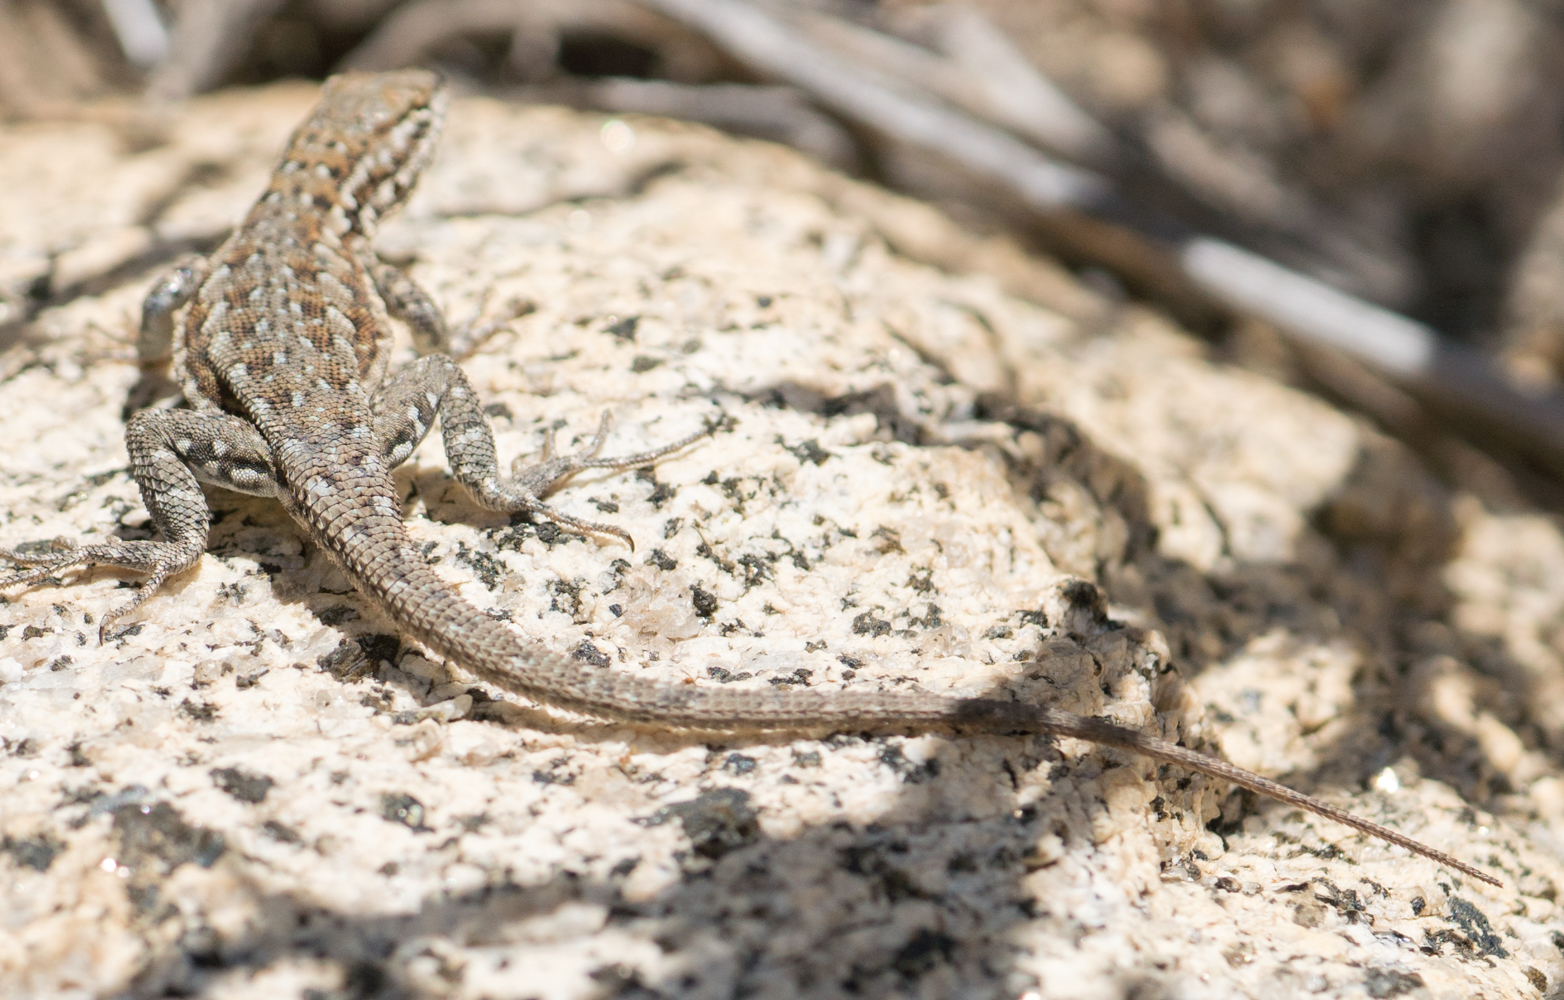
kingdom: Animalia
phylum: Chordata
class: Squamata
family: Phrynosomatidae
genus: Uta
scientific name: Uta stansburiana
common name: Side-blotched lizard
